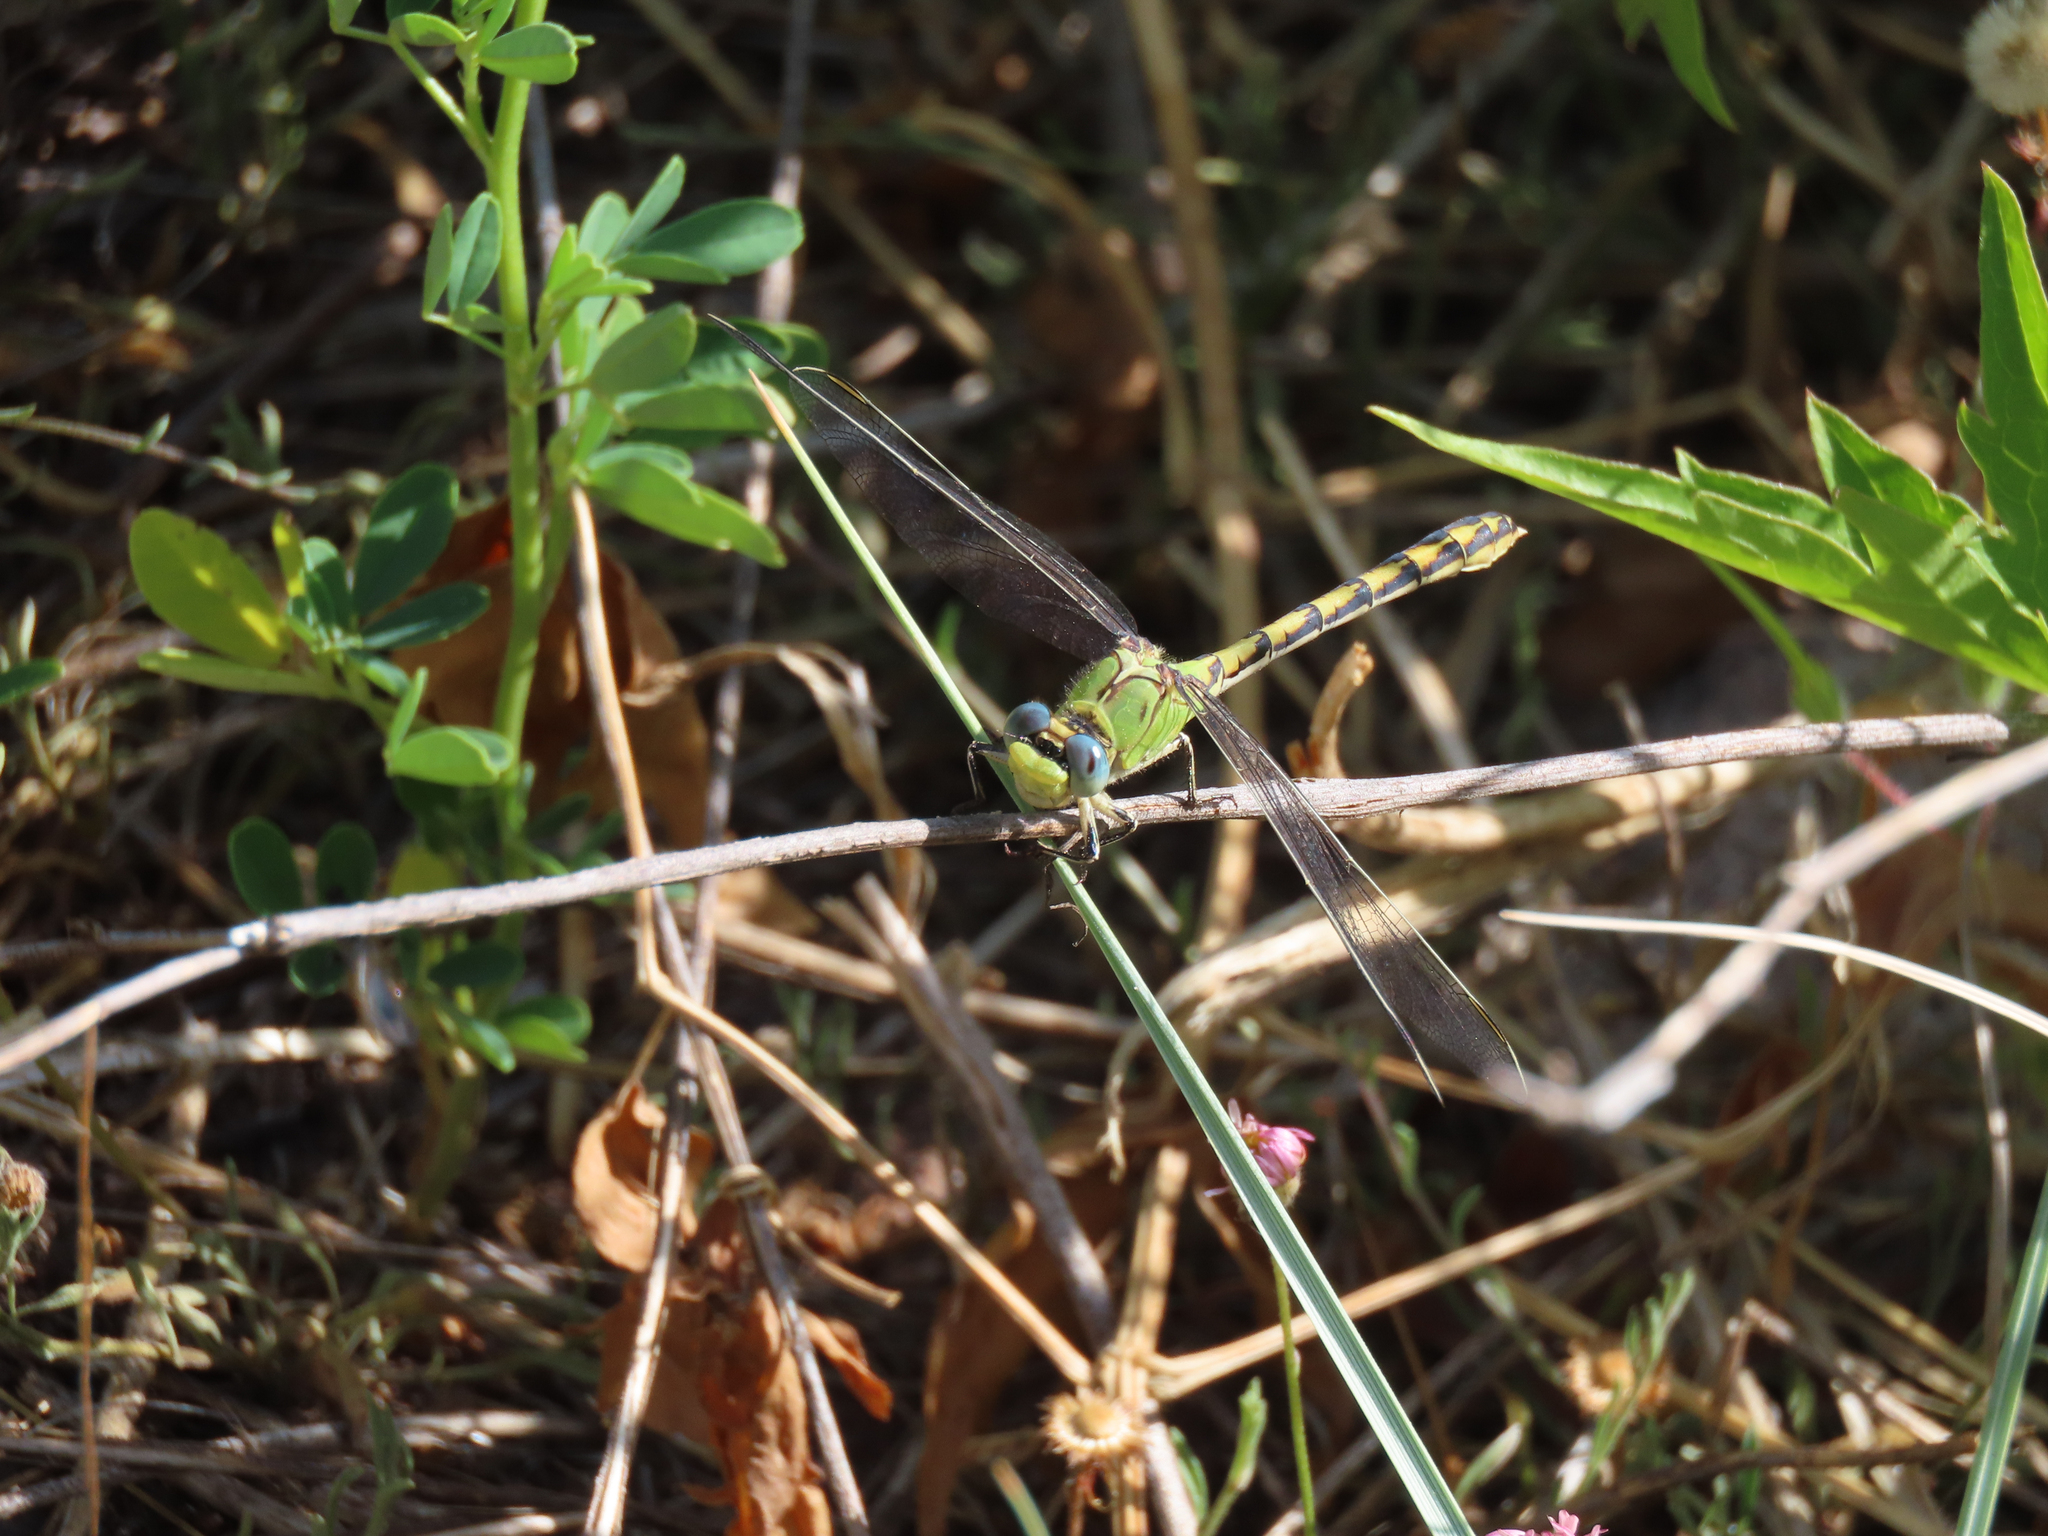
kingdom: Animalia
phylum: Arthropoda
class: Insecta
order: Odonata
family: Gomphidae
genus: Ophiogomphus
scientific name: Ophiogomphus severus
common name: Pale snaketail
